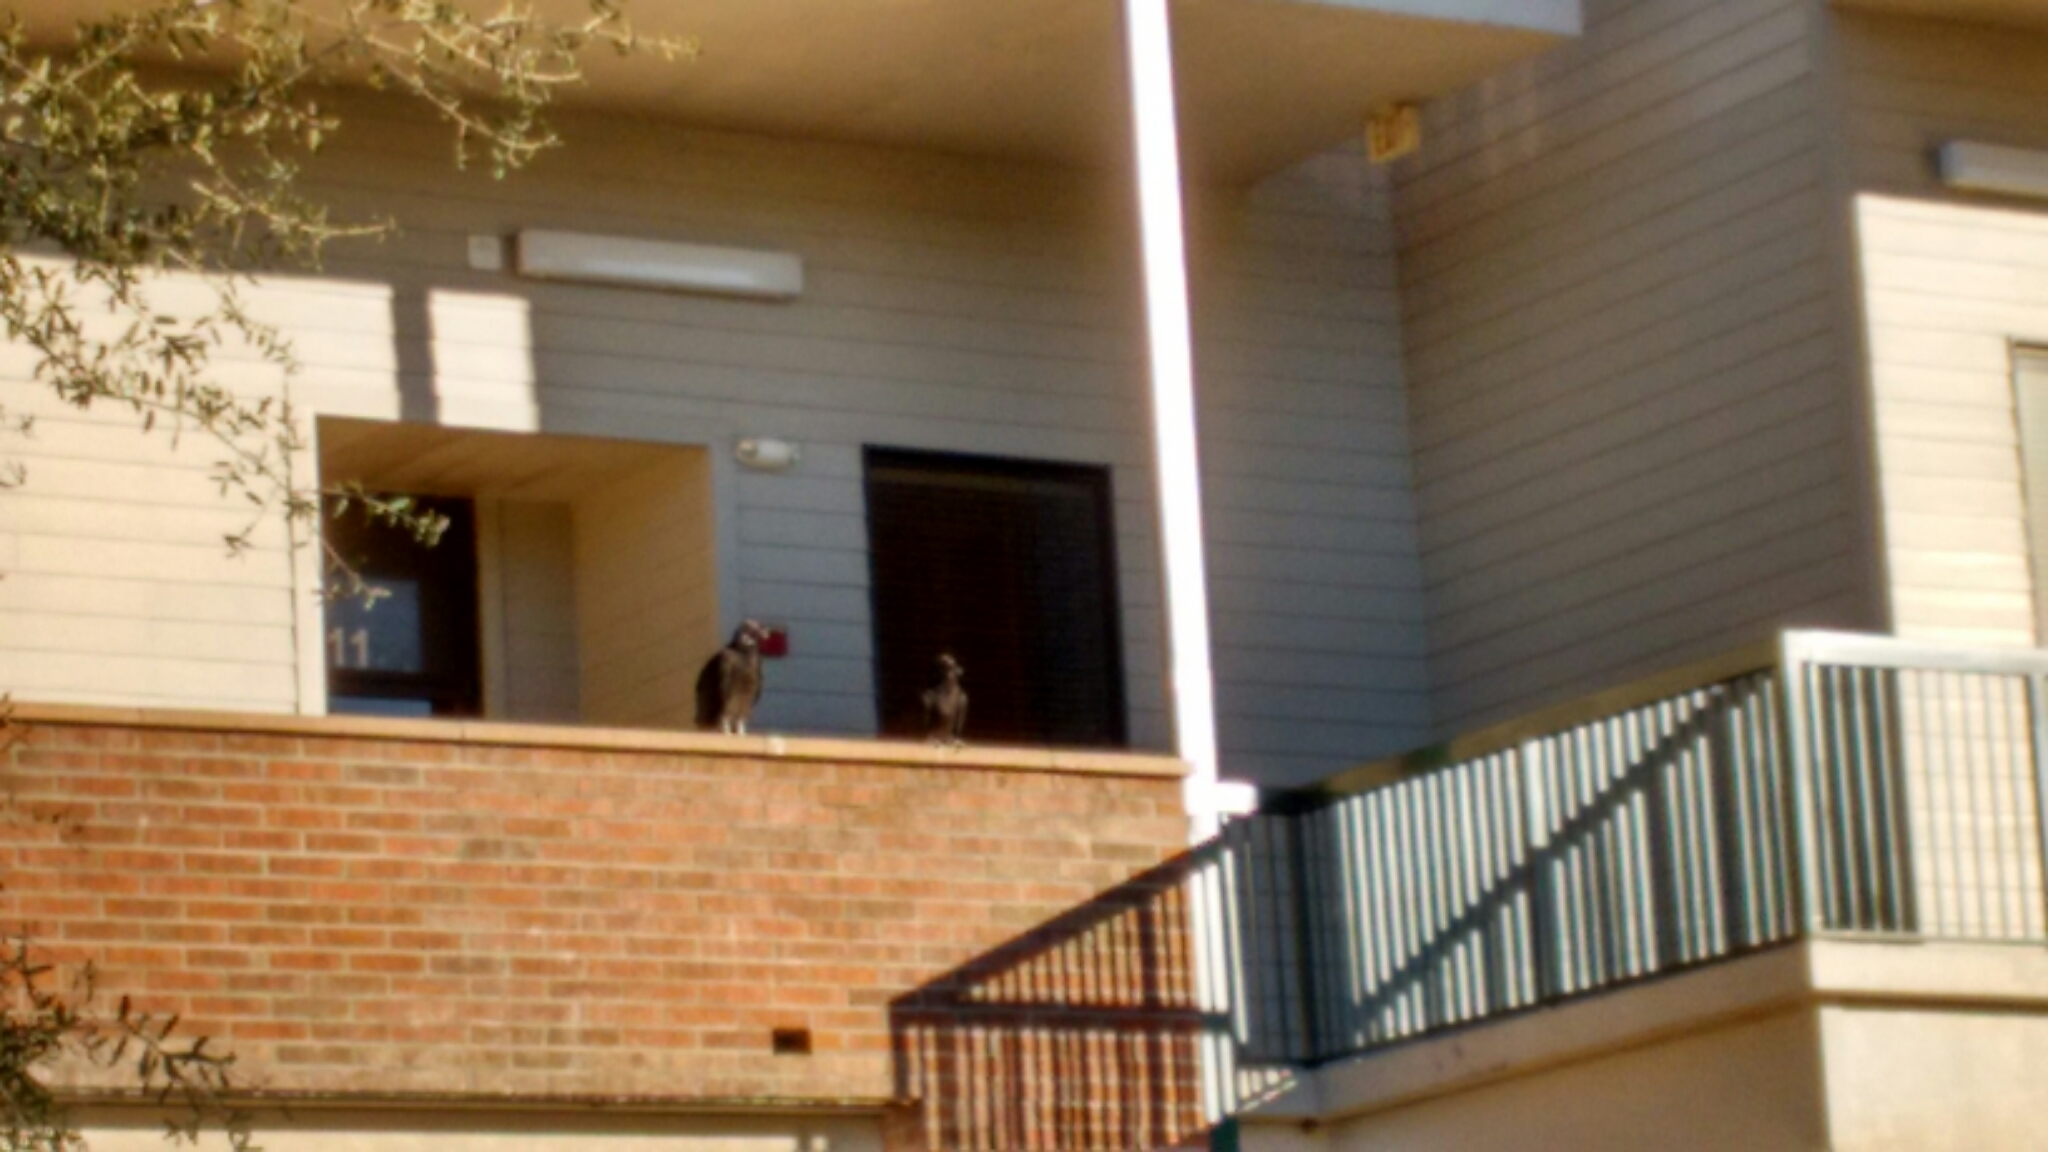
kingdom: Animalia
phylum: Chordata
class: Aves
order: Accipitriformes
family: Cathartidae
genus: Coragyps
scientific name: Coragyps atratus
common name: Black vulture
